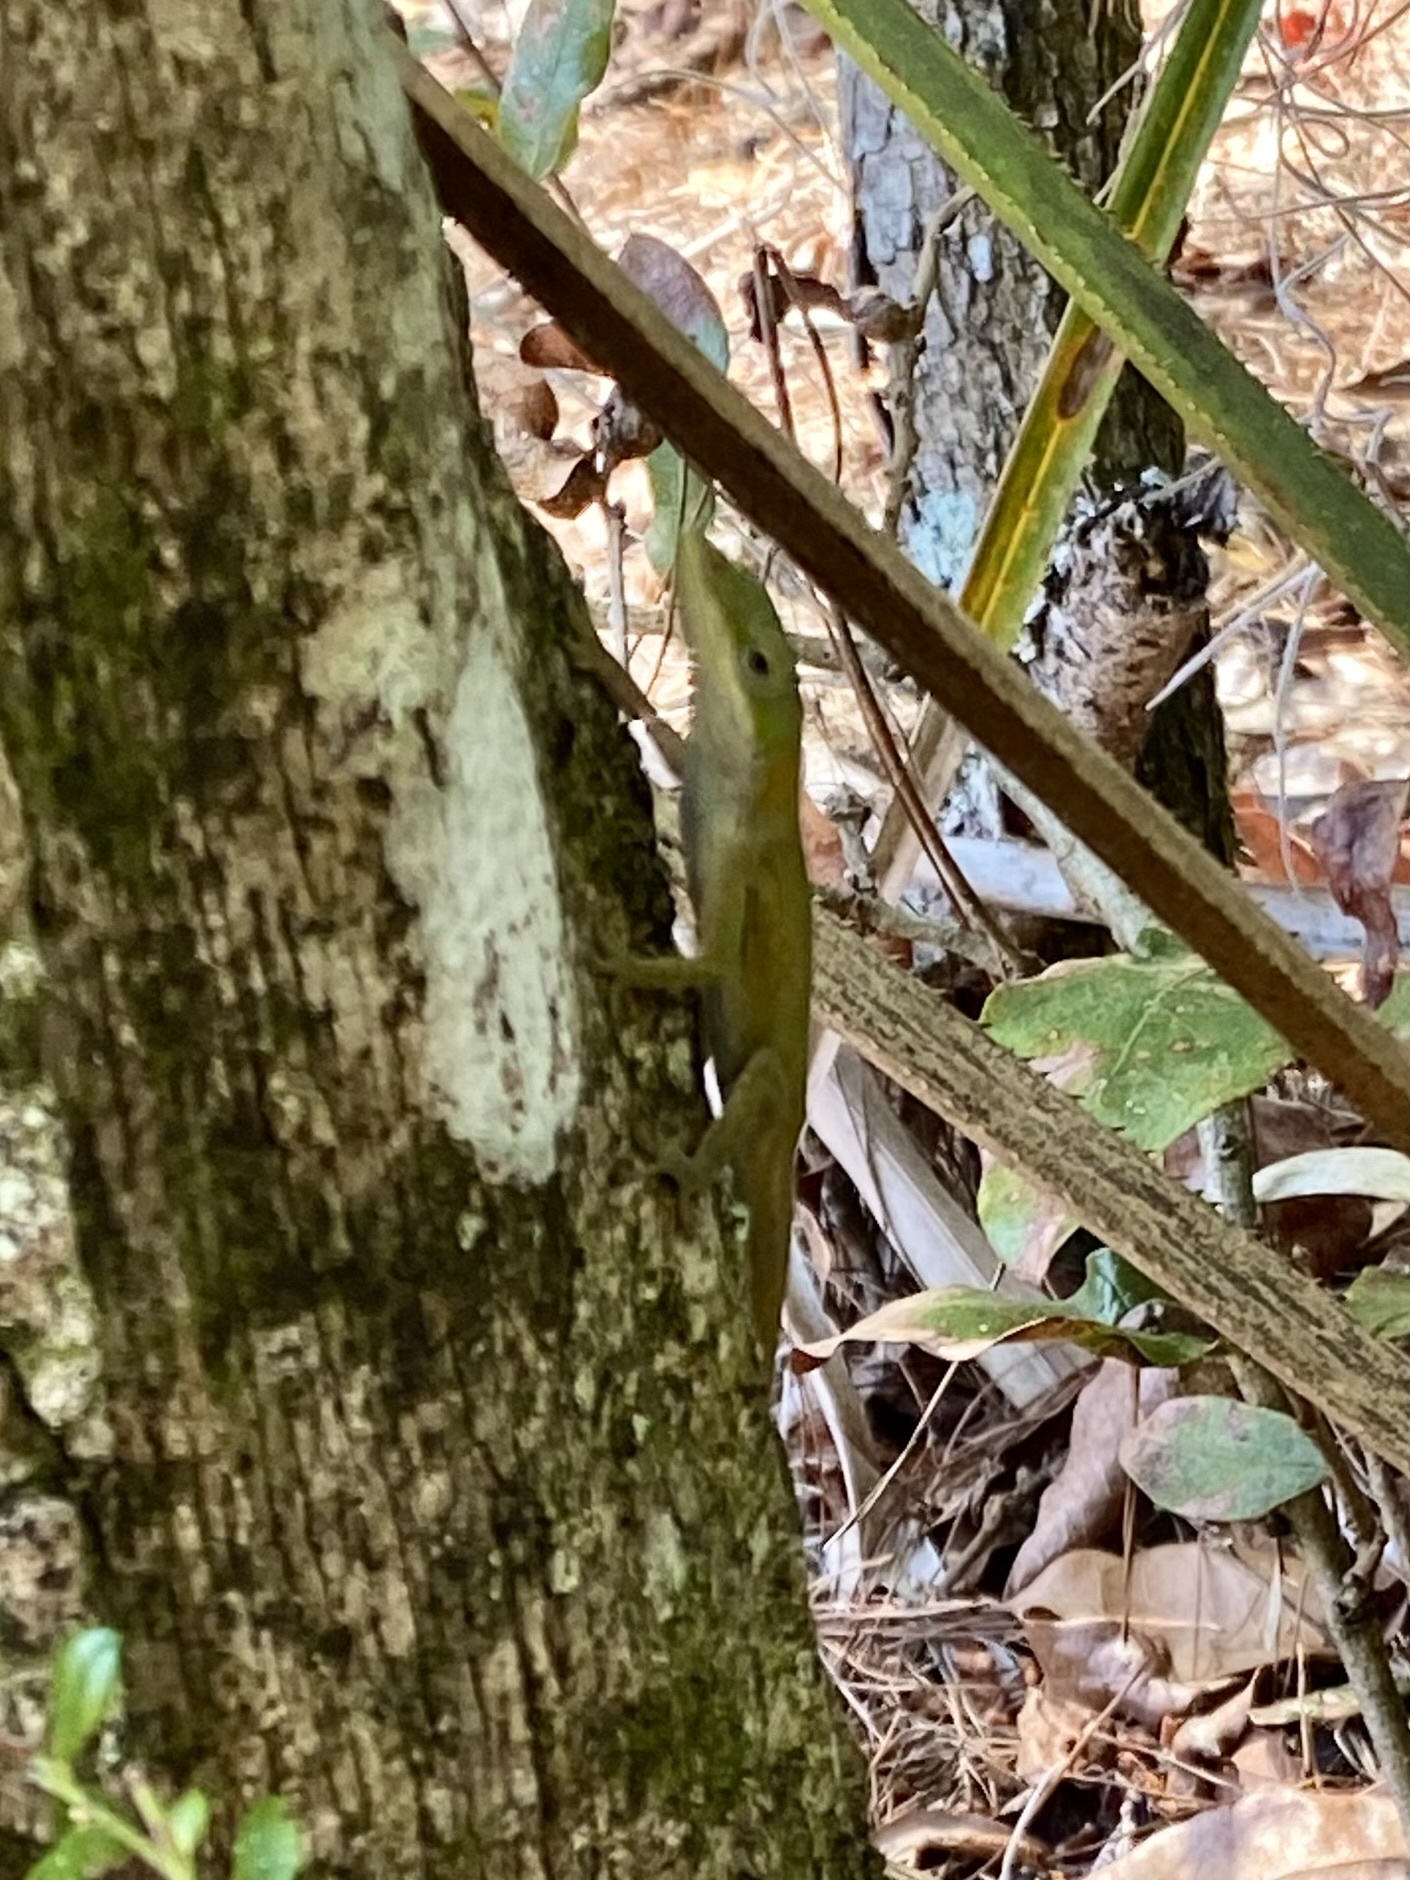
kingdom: Animalia
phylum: Chordata
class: Squamata
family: Dactyloidae
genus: Anolis
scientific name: Anolis carolinensis
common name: Green anole
